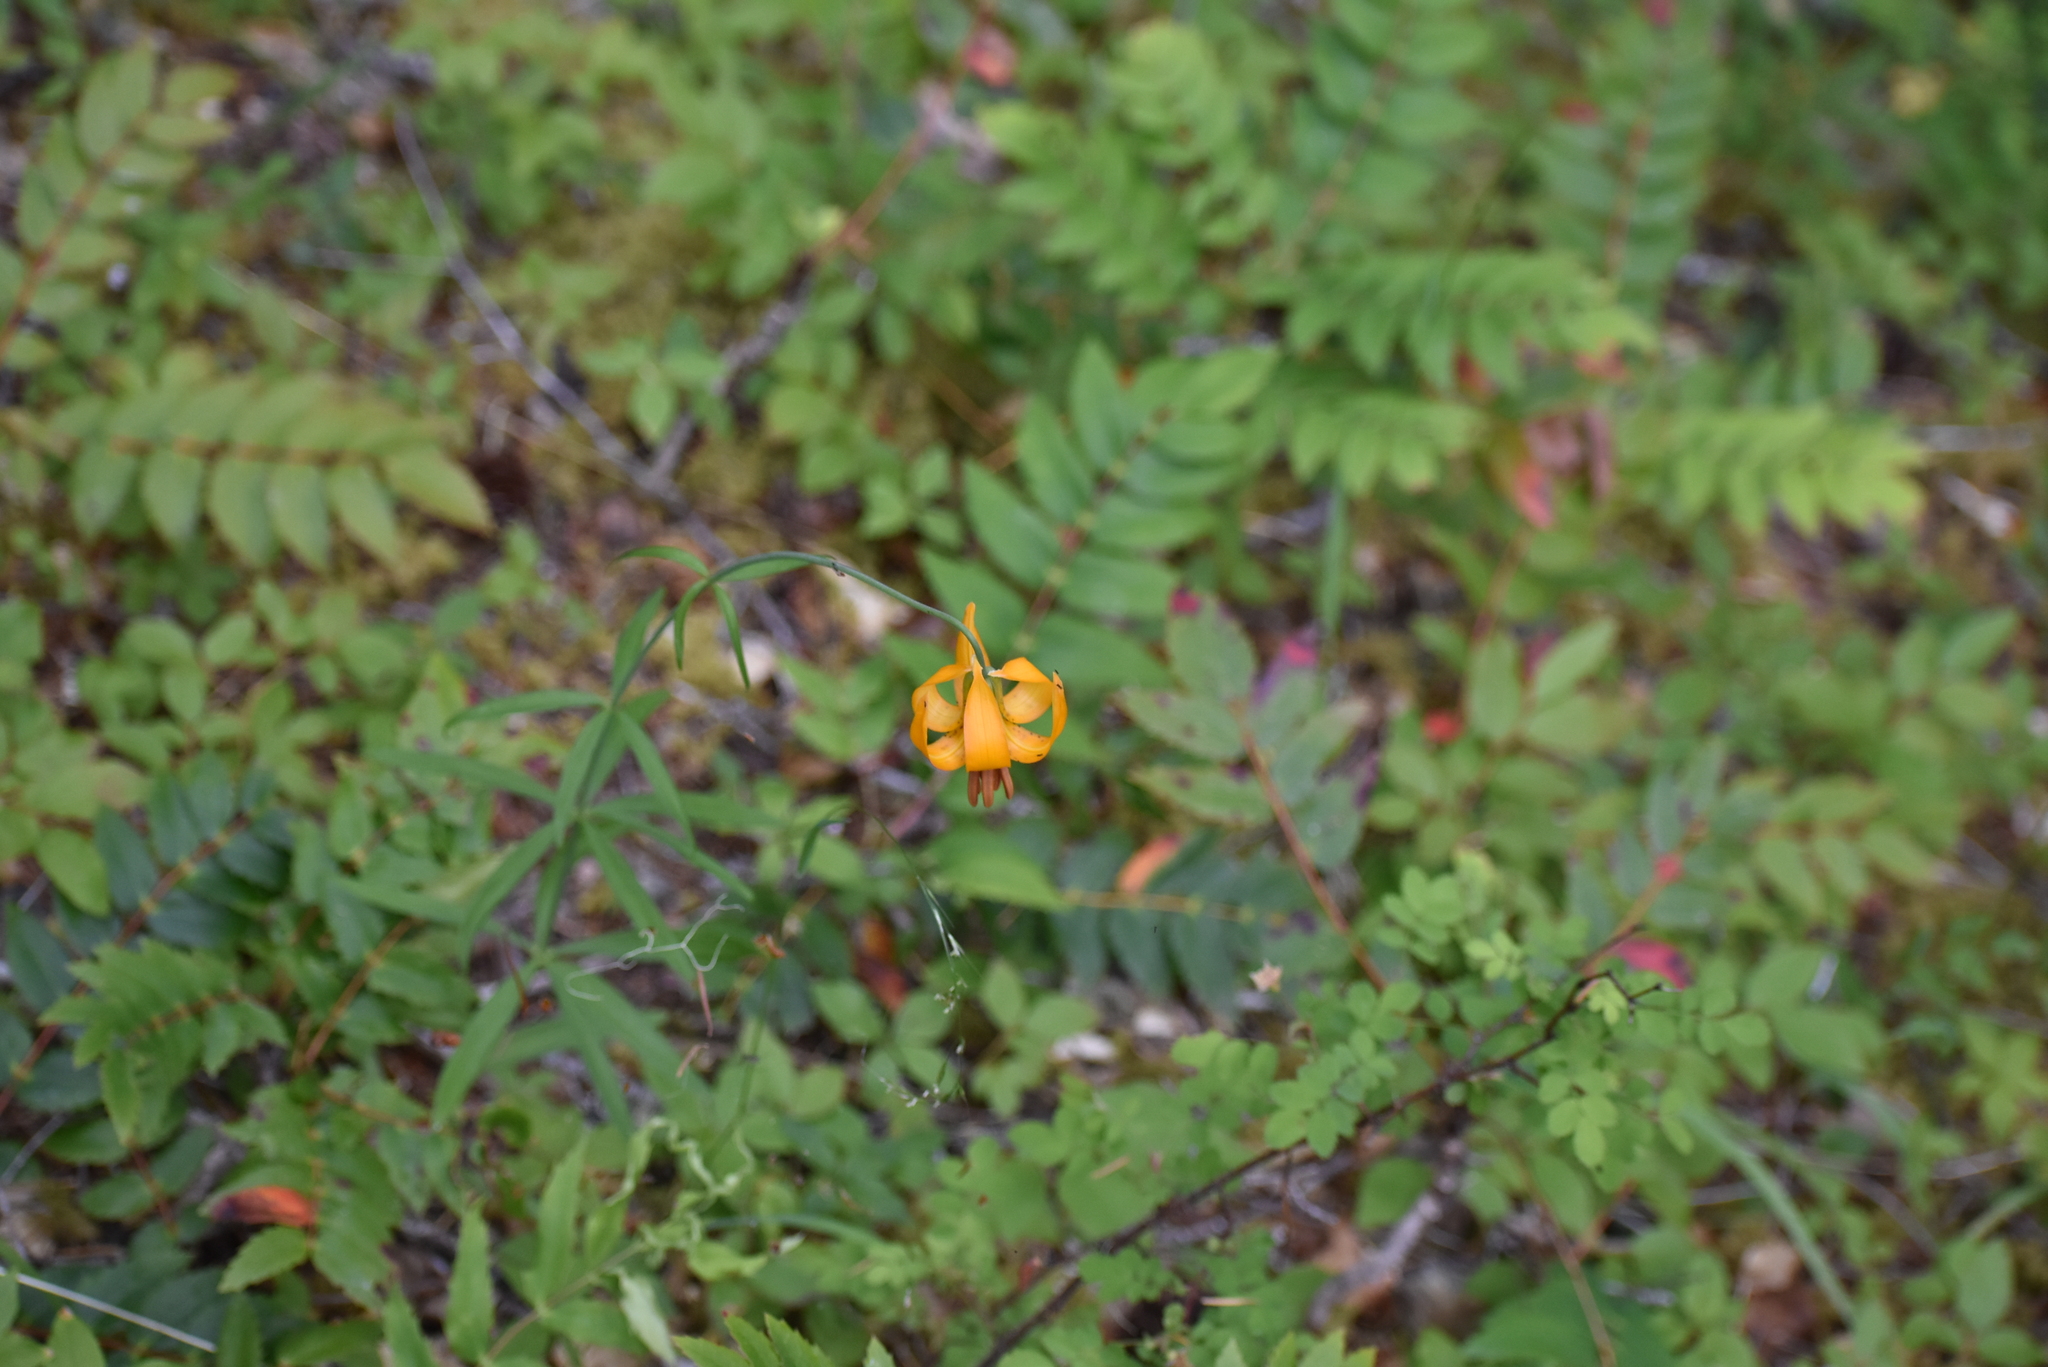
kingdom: Plantae
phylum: Tracheophyta
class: Liliopsida
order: Liliales
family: Liliaceae
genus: Lilium
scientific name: Lilium columbianum
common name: Columbia lily
